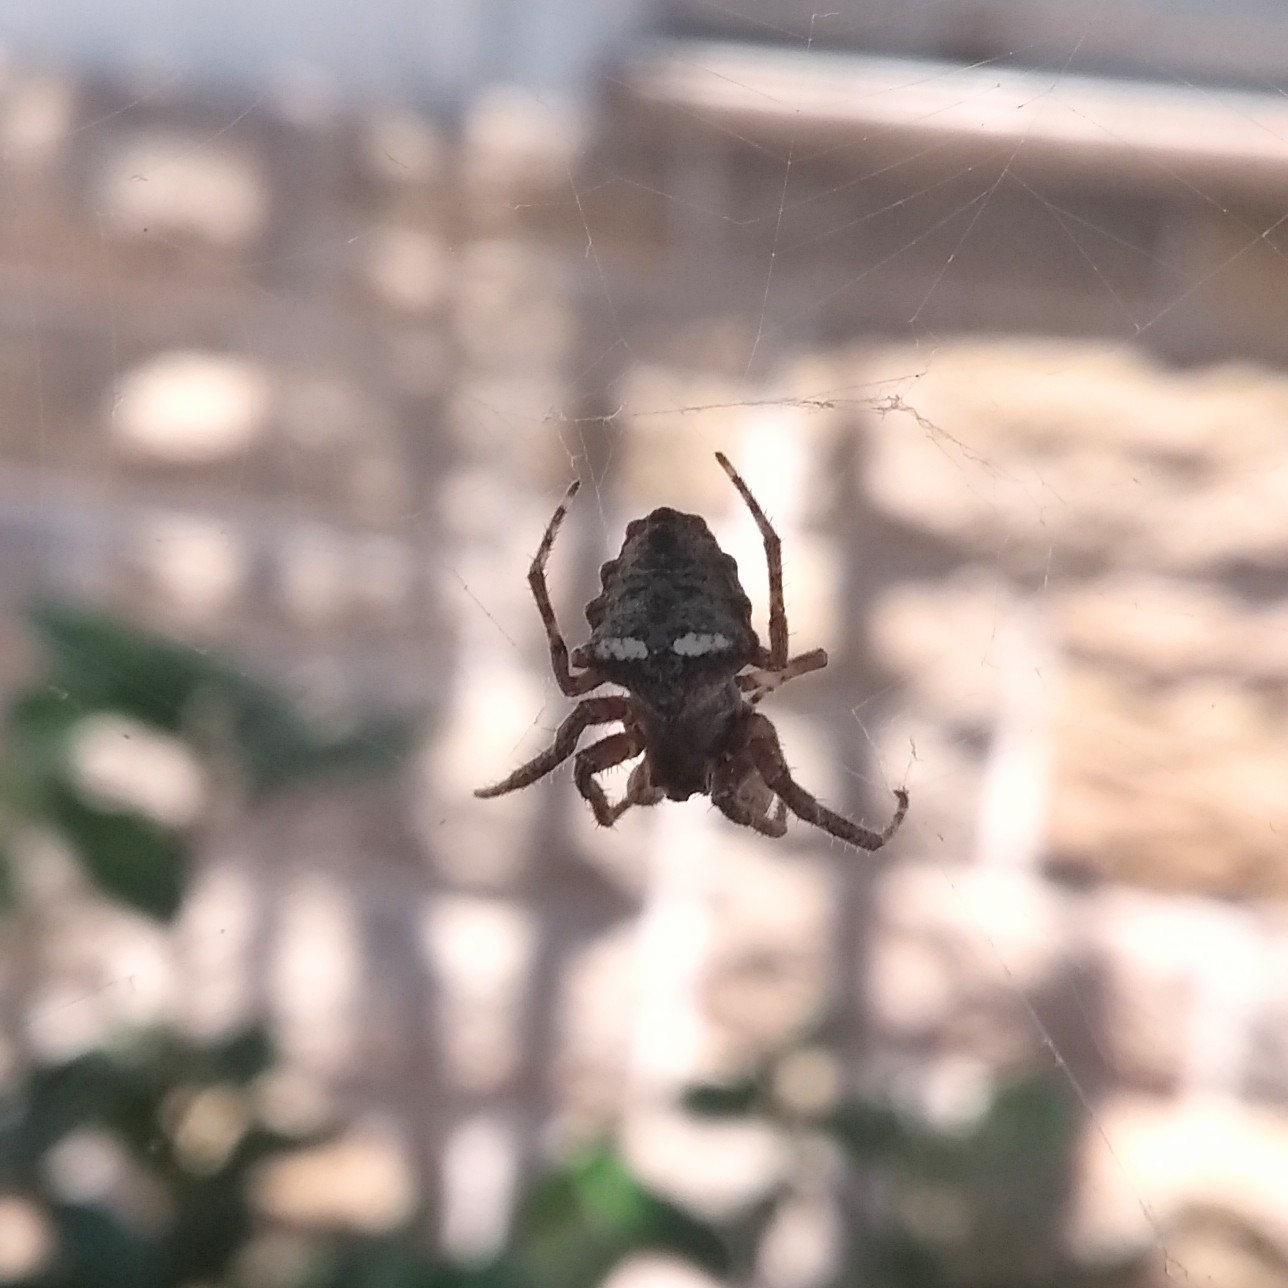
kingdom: Animalia
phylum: Arthropoda
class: Arachnida
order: Araneae
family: Araneidae
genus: Parawixia
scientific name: Parawixia audax
